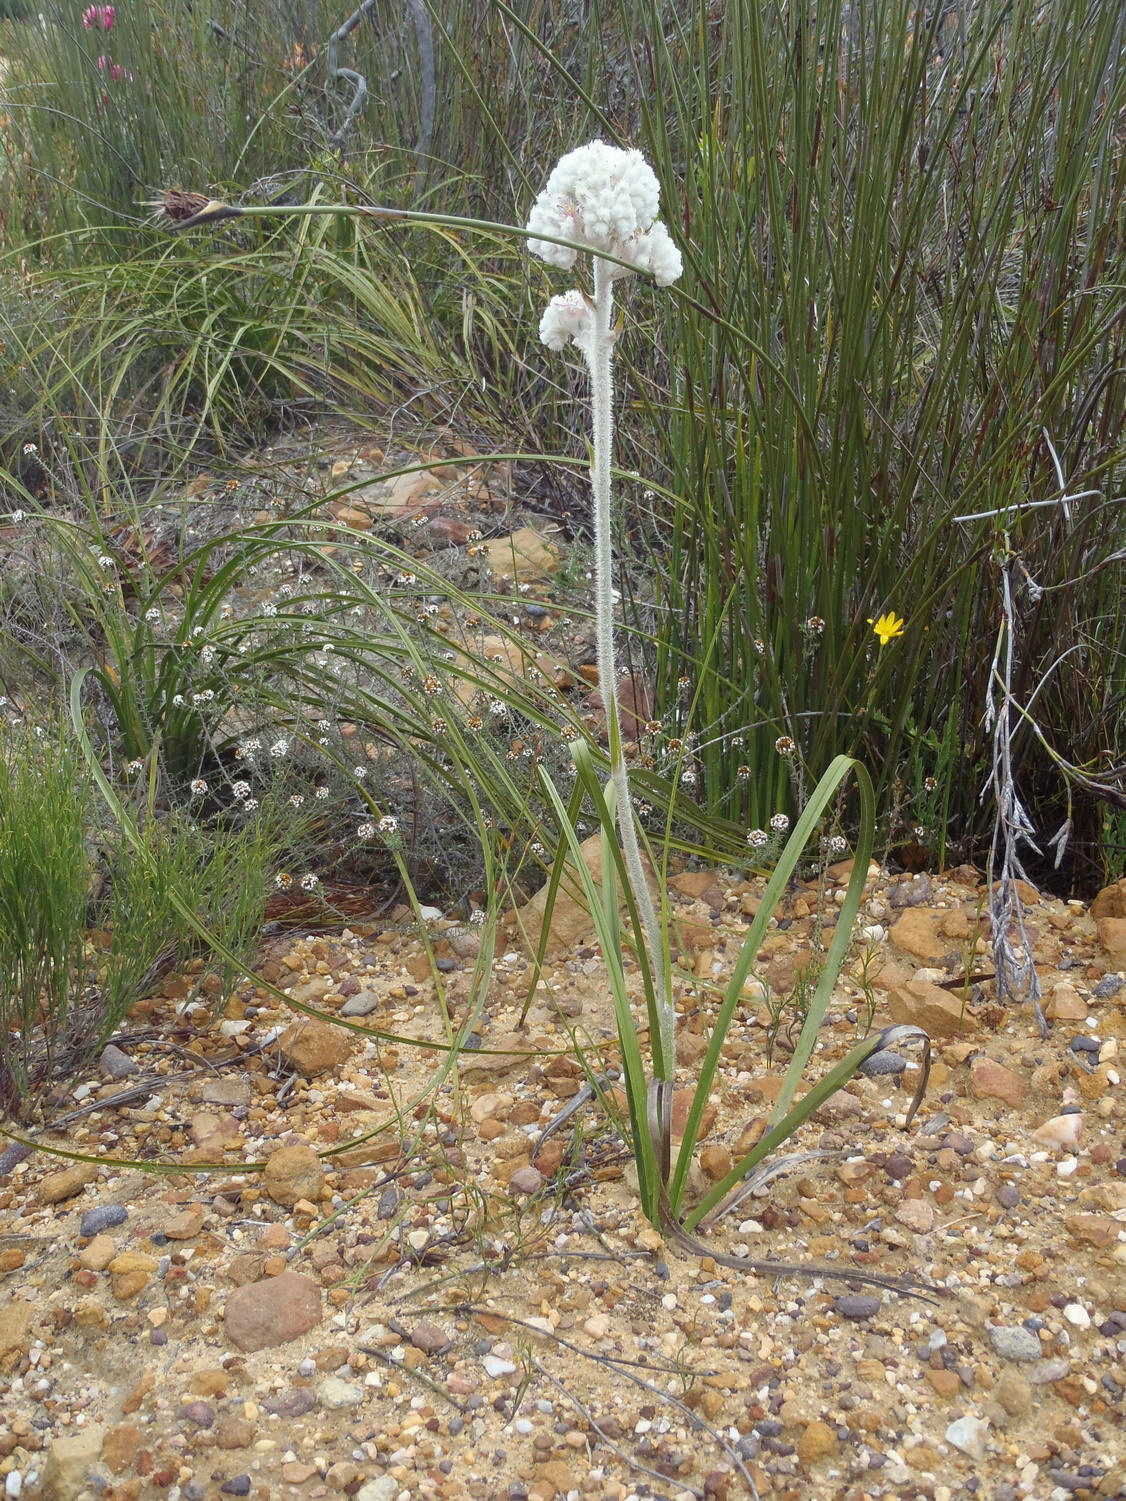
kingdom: Plantae
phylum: Tracheophyta
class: Liliopsida
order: Asparagales
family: Lanariaceae
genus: Lanaria
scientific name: Lanaria lanata
